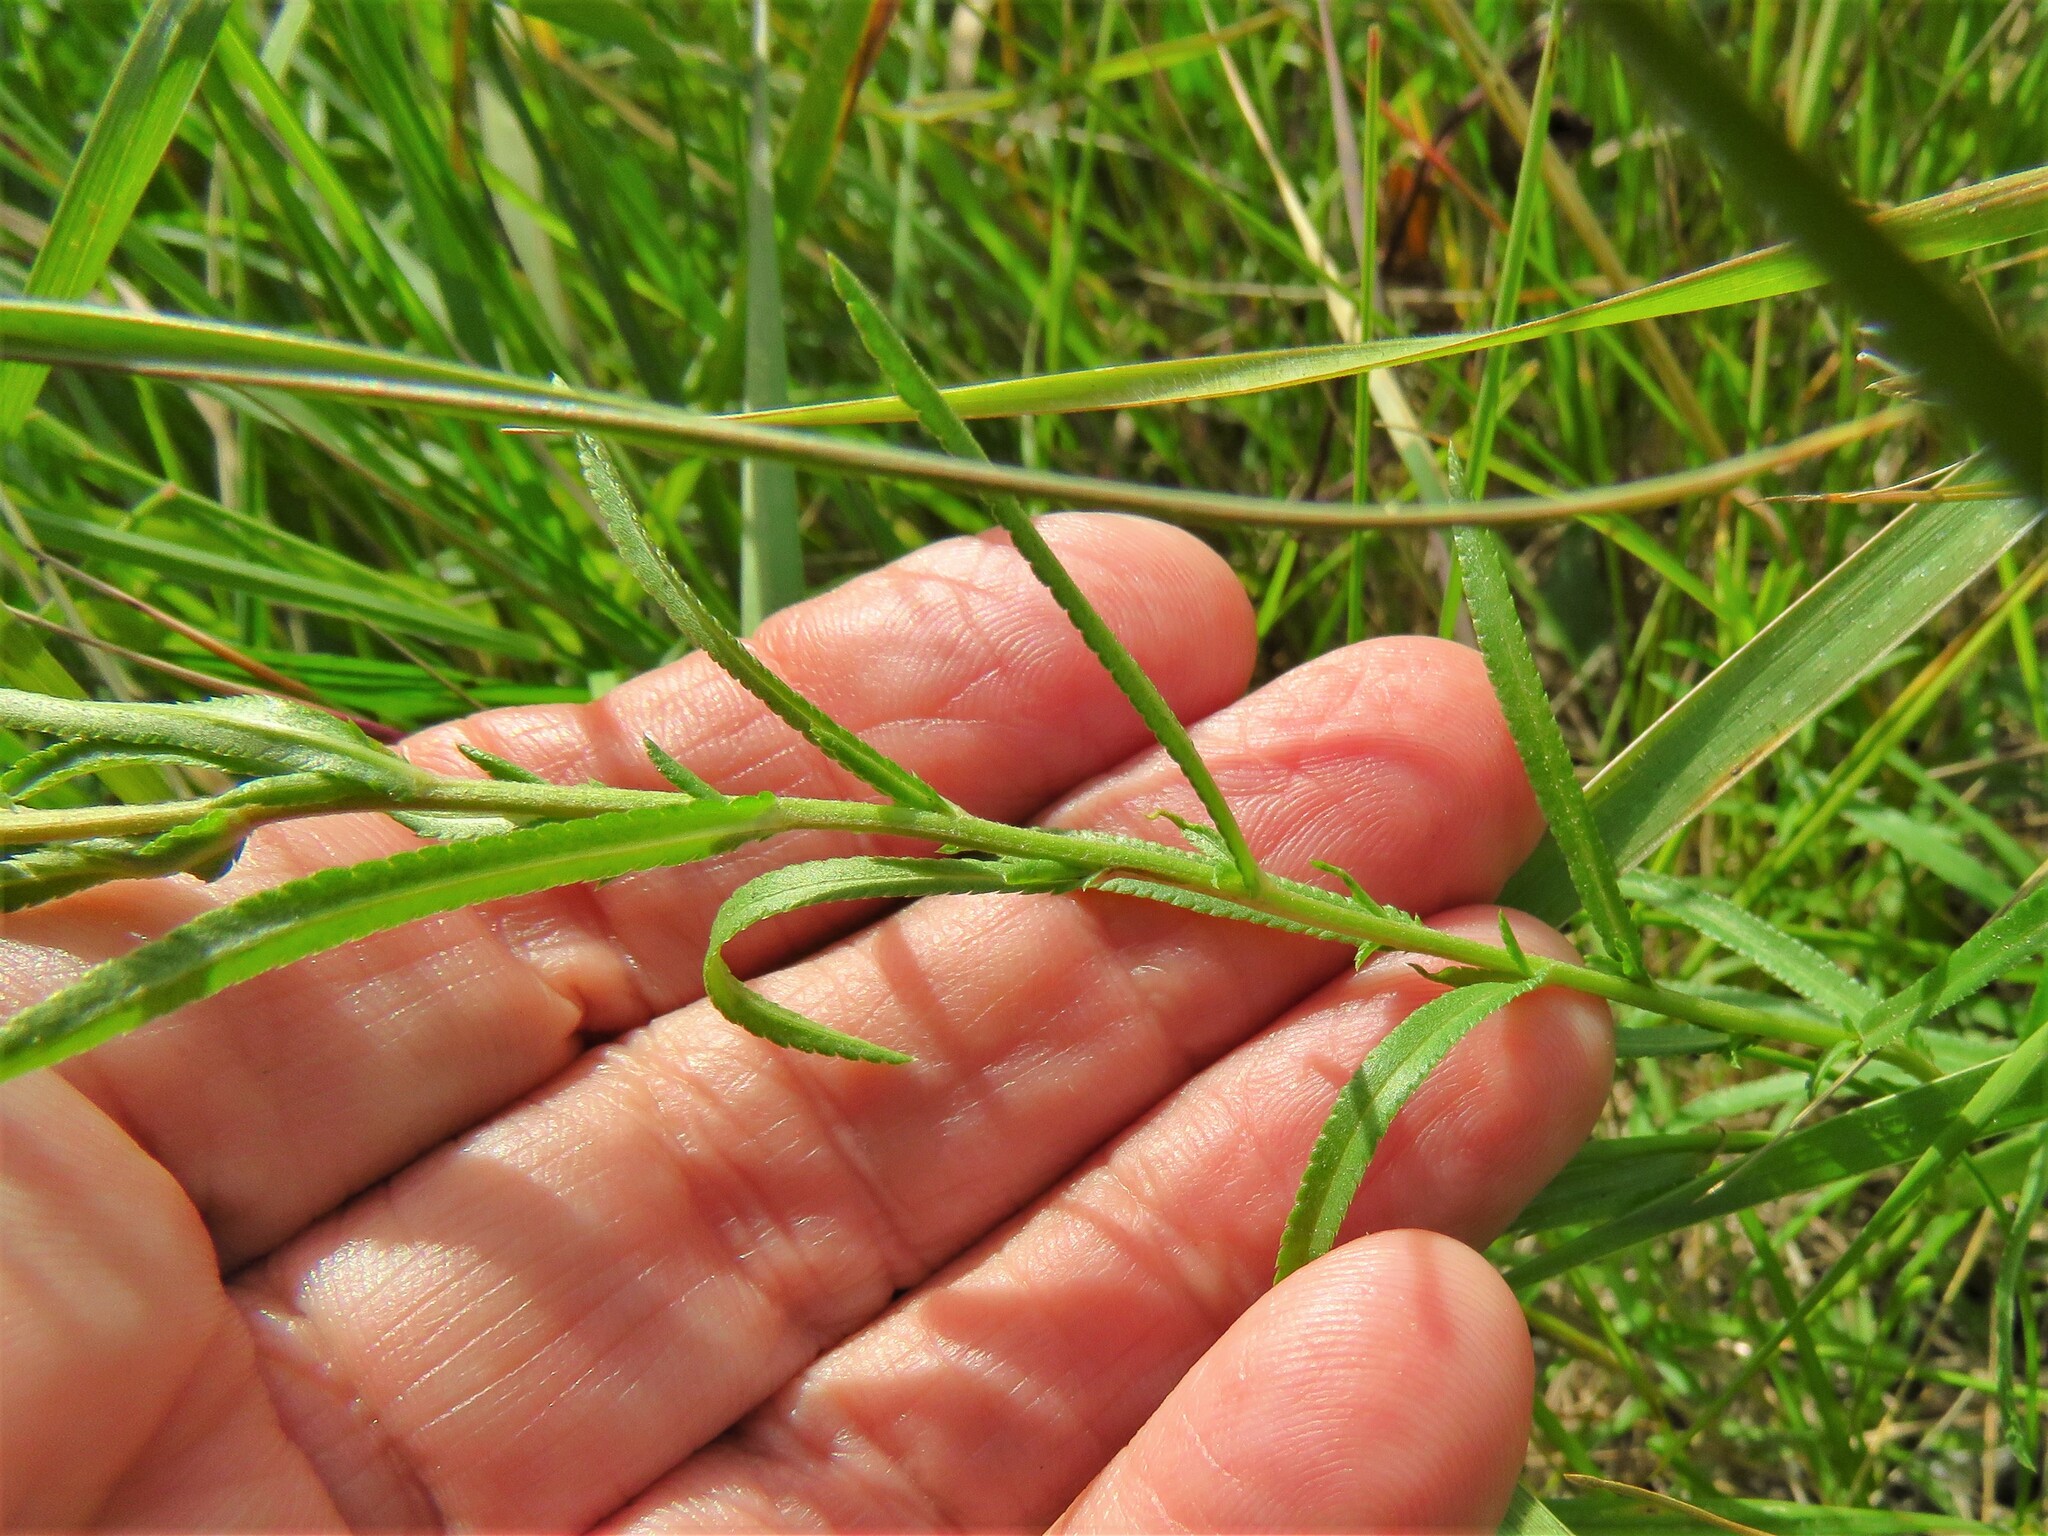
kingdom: Plantae
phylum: Tracheophyta
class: Magnoliopsida
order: Asterales
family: Asteraceae
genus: Achillea
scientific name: Achillea ptarmica
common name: Sneezeweed
